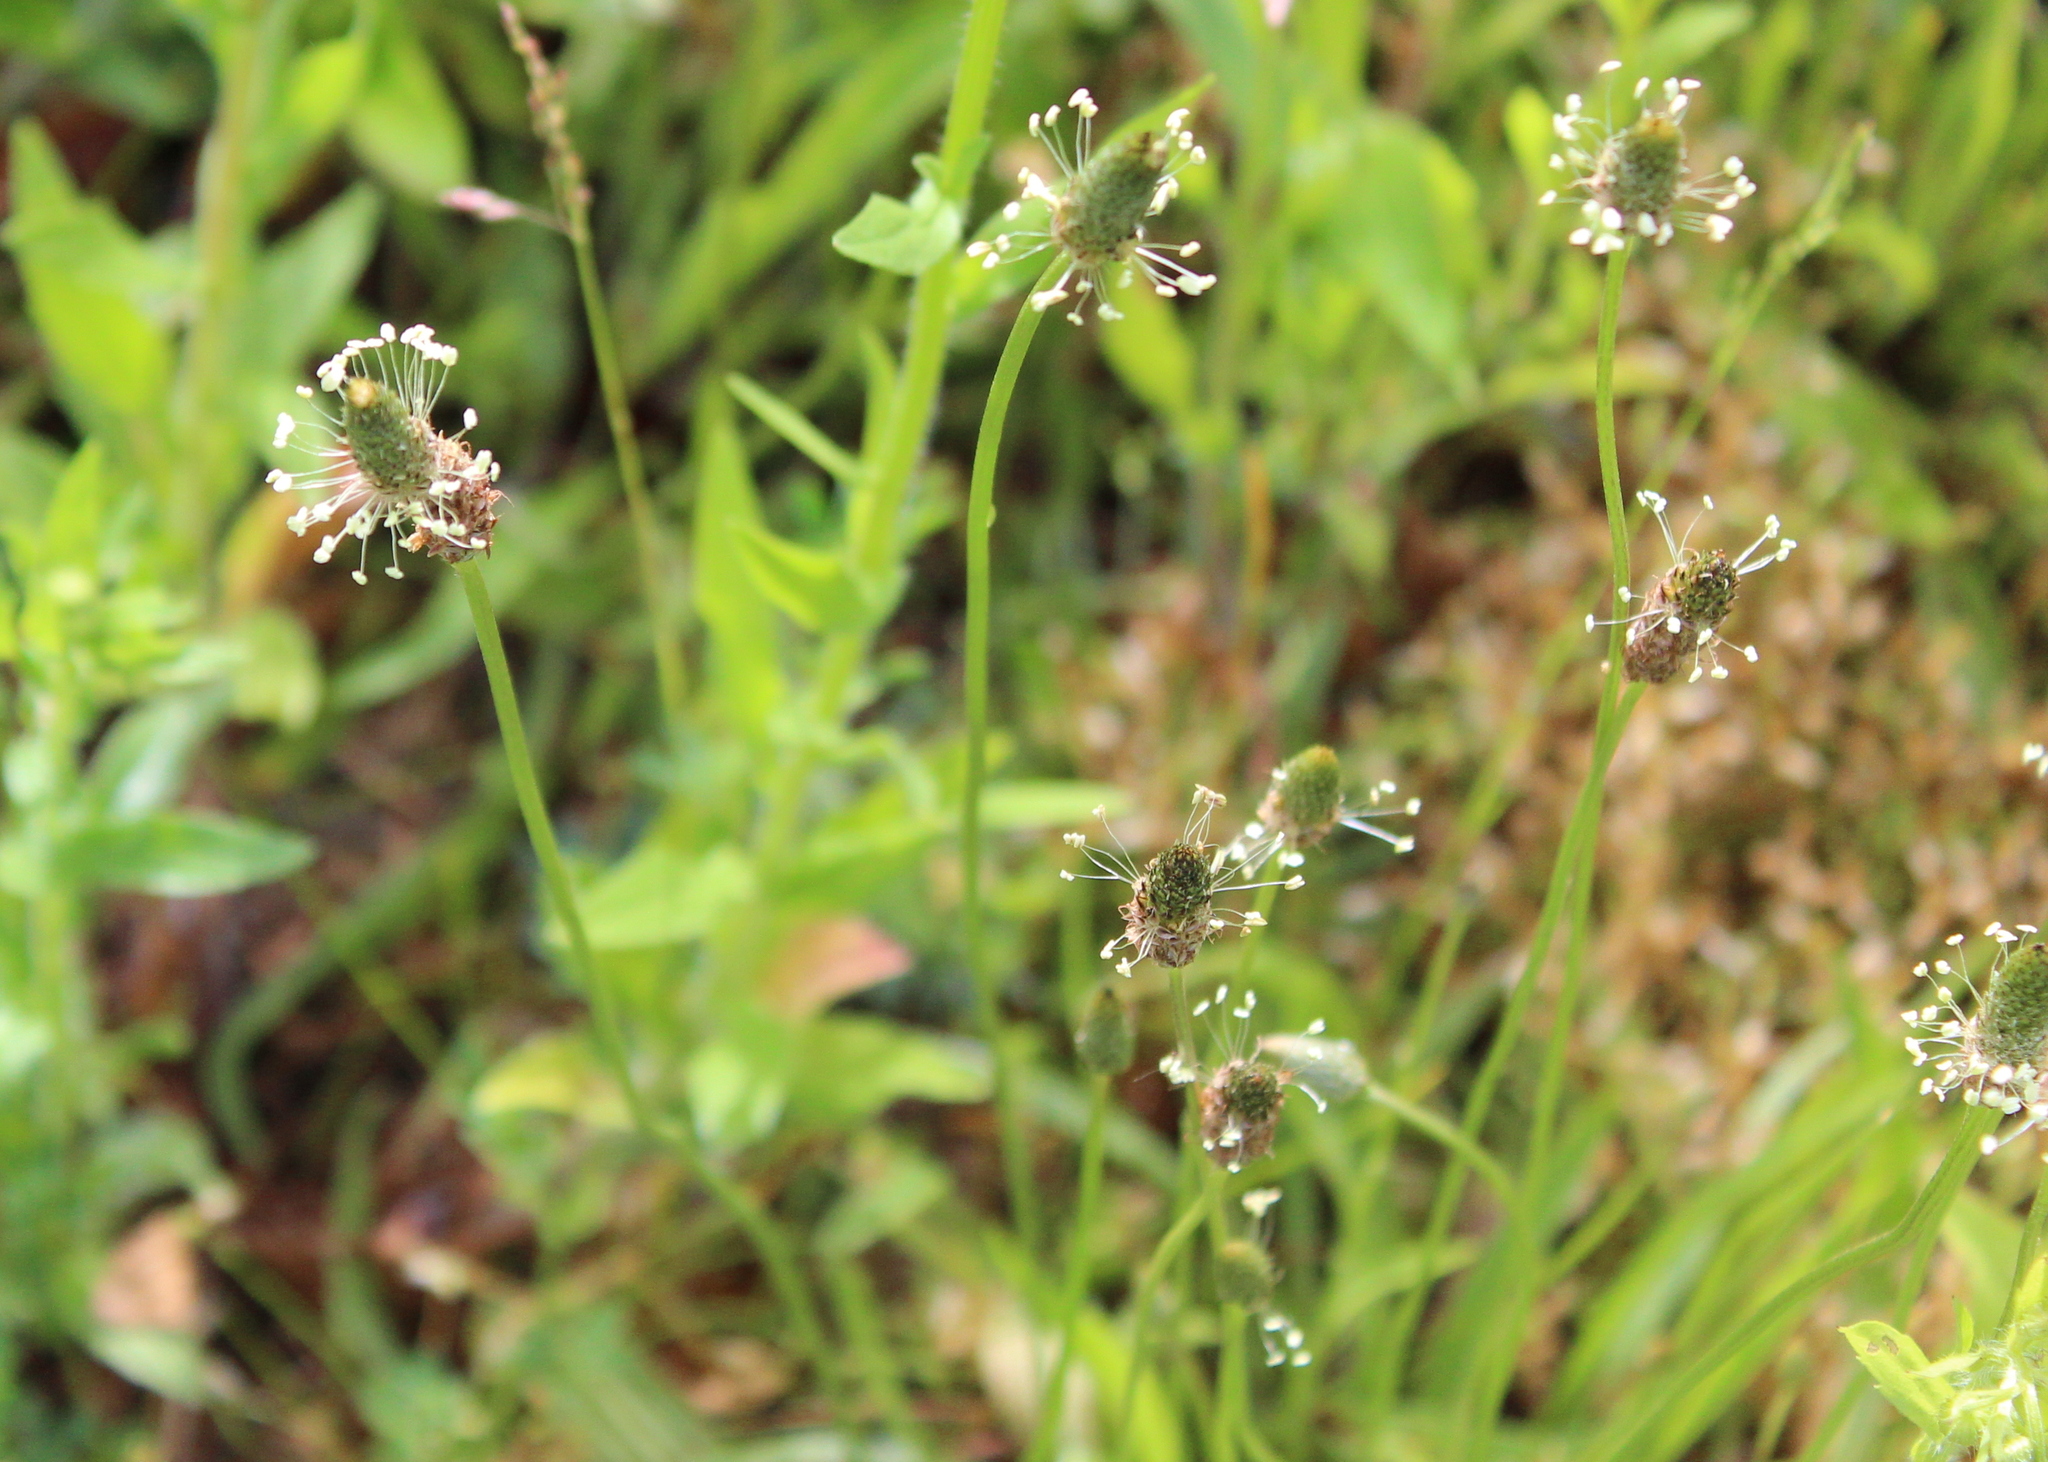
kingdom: Plantae
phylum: Tracheophyta
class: Magnoliopsida
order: Lamiales
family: Plantaginaceae
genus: Plantago
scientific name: Plantago lanceolata
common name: Ribwort plantain
